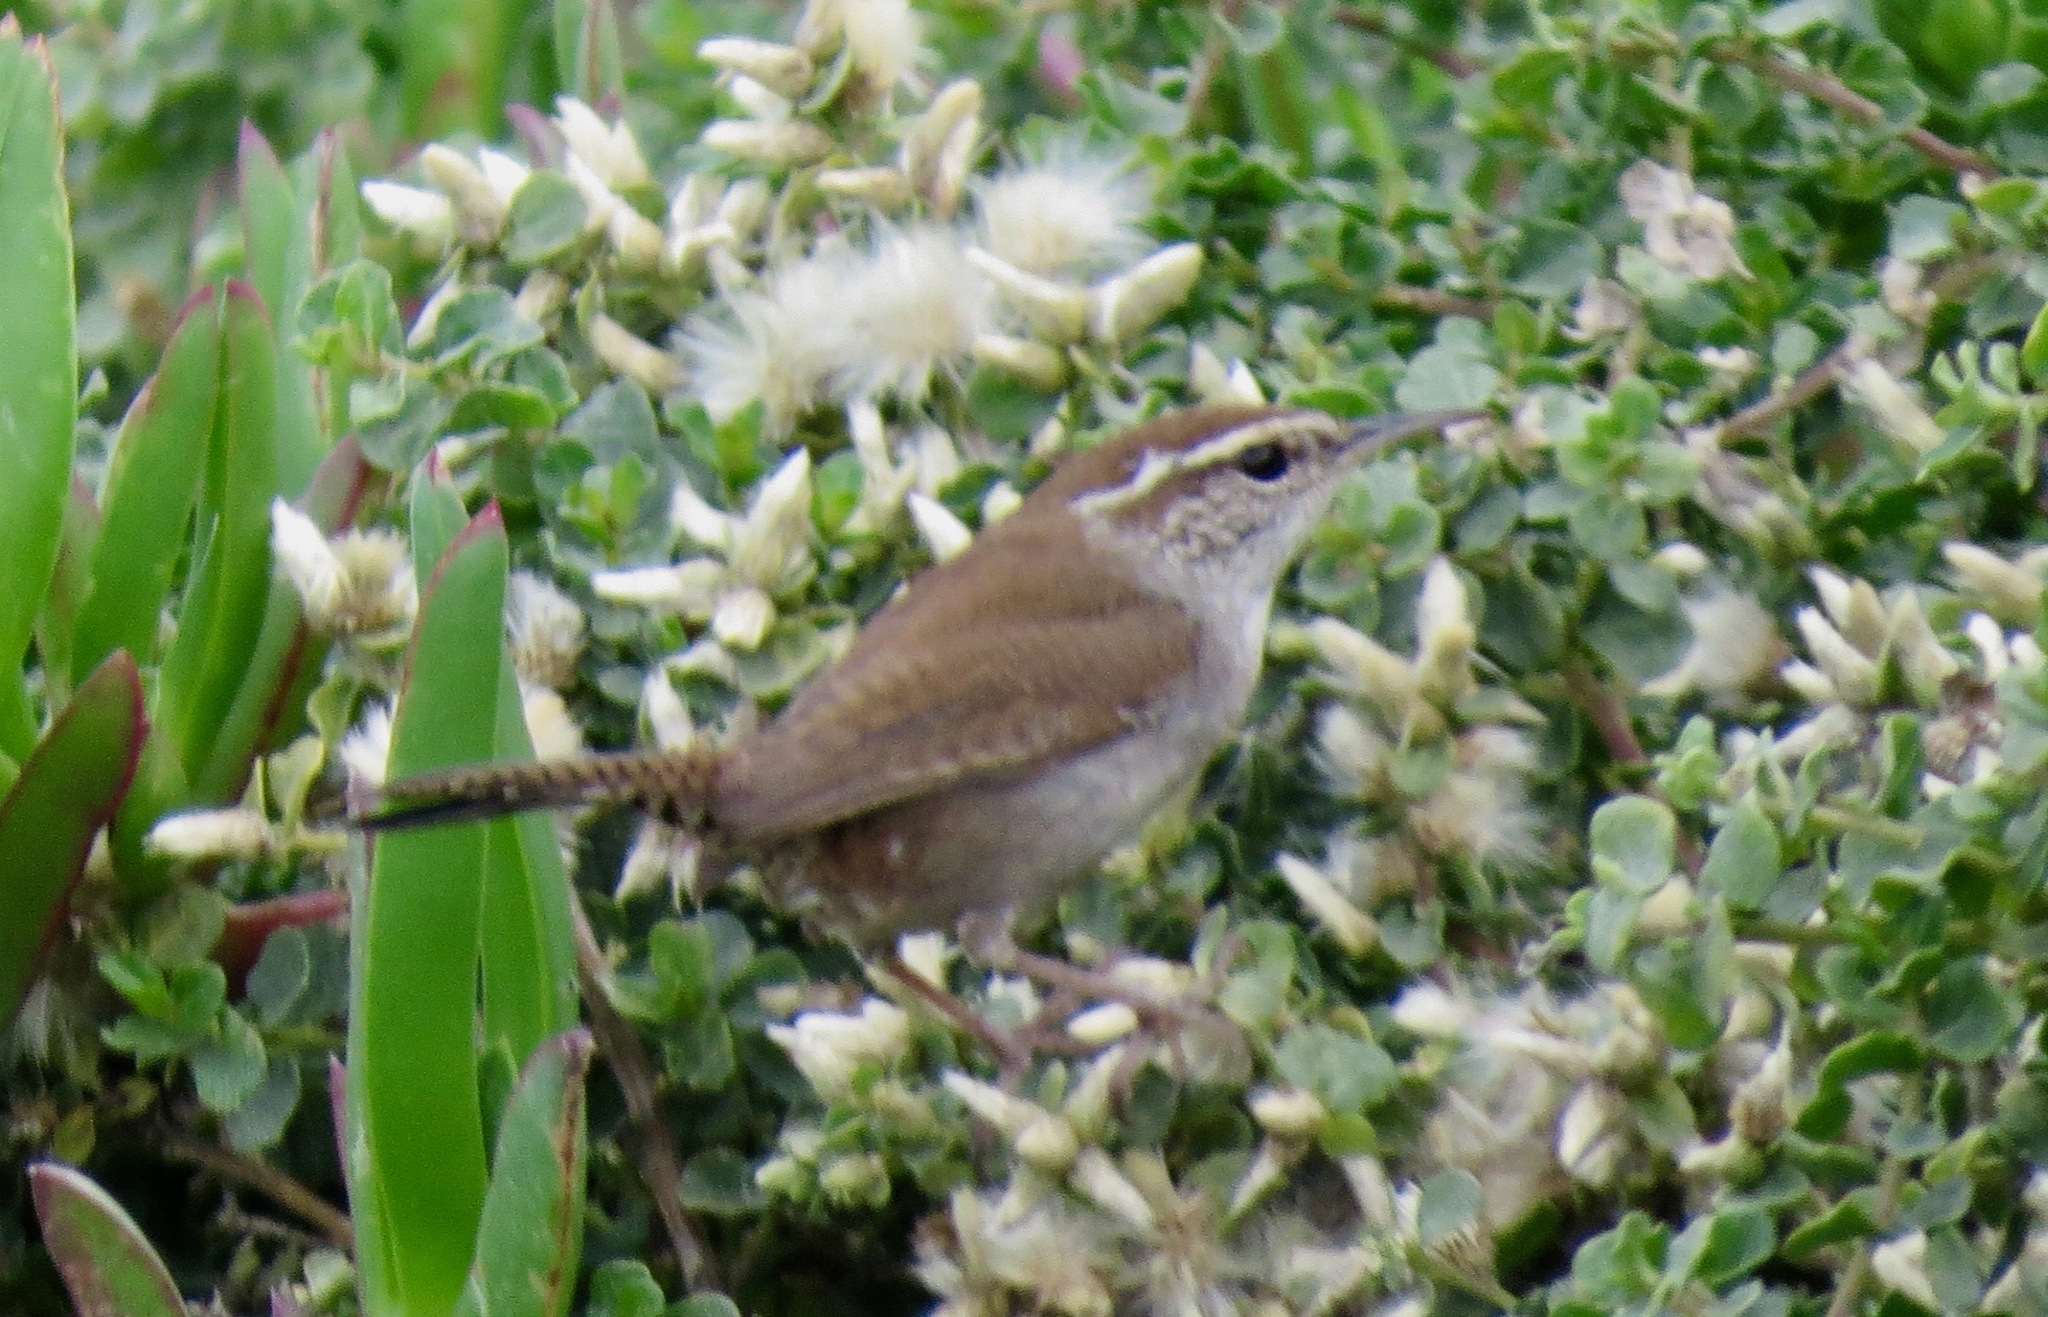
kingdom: Animalia
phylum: Chordata
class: Aves
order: Passeriformes
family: Troglodytidae
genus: Thryomanes
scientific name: Thryomanes bewickii
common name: Bewick's wren
